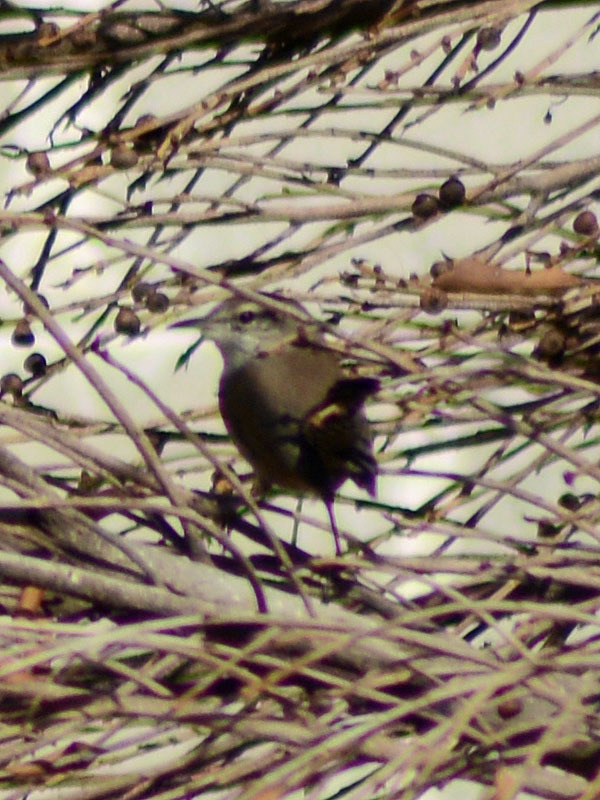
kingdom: Animalia
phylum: Chordata
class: Aves
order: Passeriformes
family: Troglodytidae
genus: Thryomanes
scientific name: Thryomanes bewickii
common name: Bewick's wren
